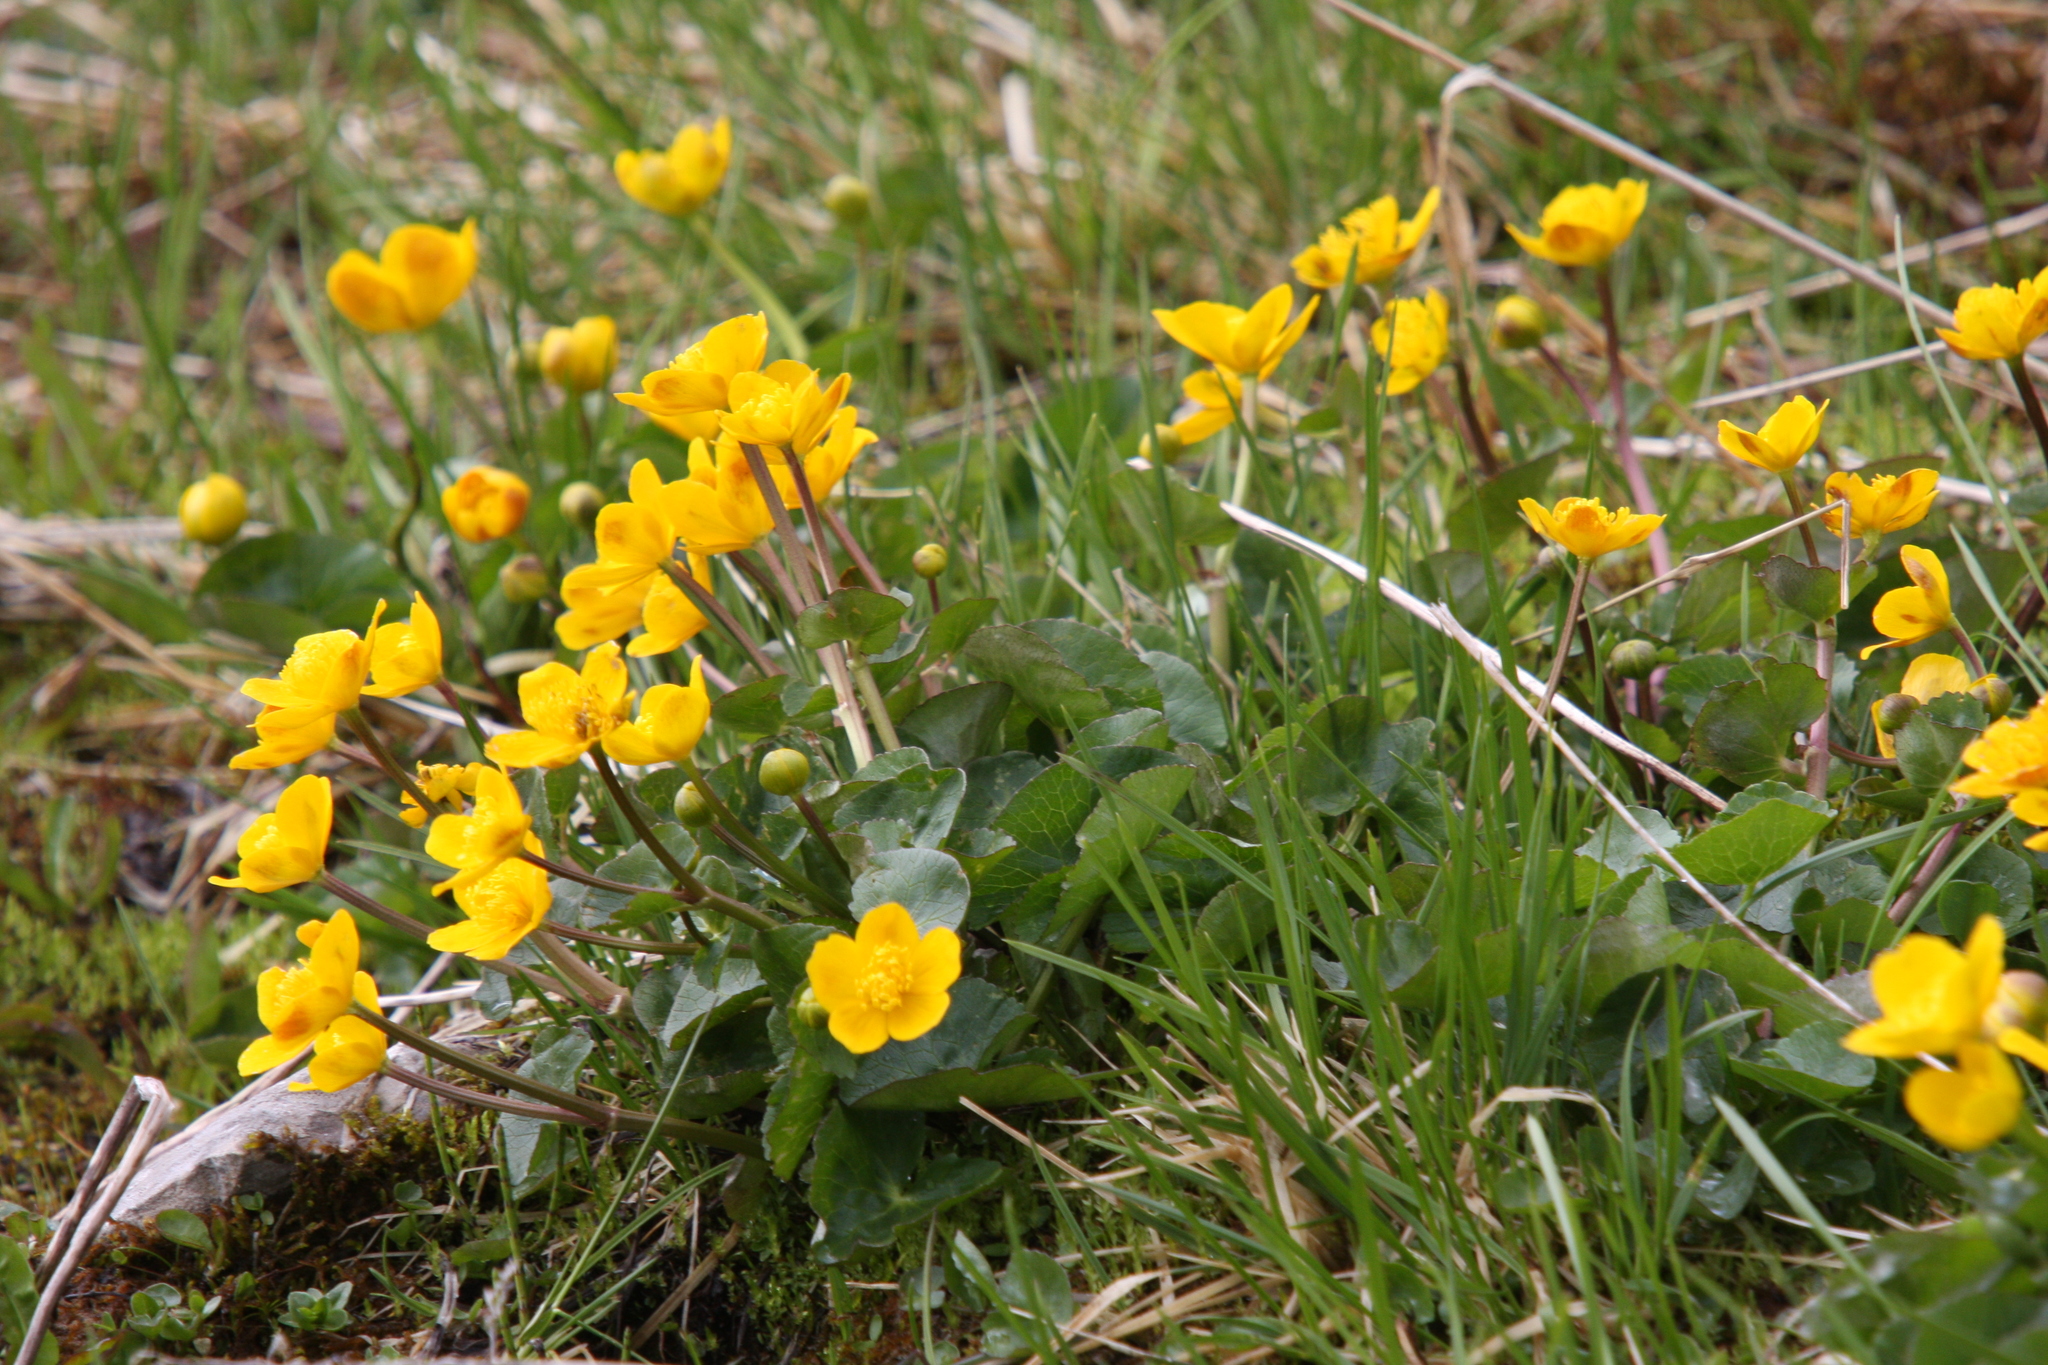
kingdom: Plantae
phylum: Tracheophyta
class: Magnoliopsida
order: Ranunculales
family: Ranunculaceae
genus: Caltha
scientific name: Caltha palustris
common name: Marsh marigold
